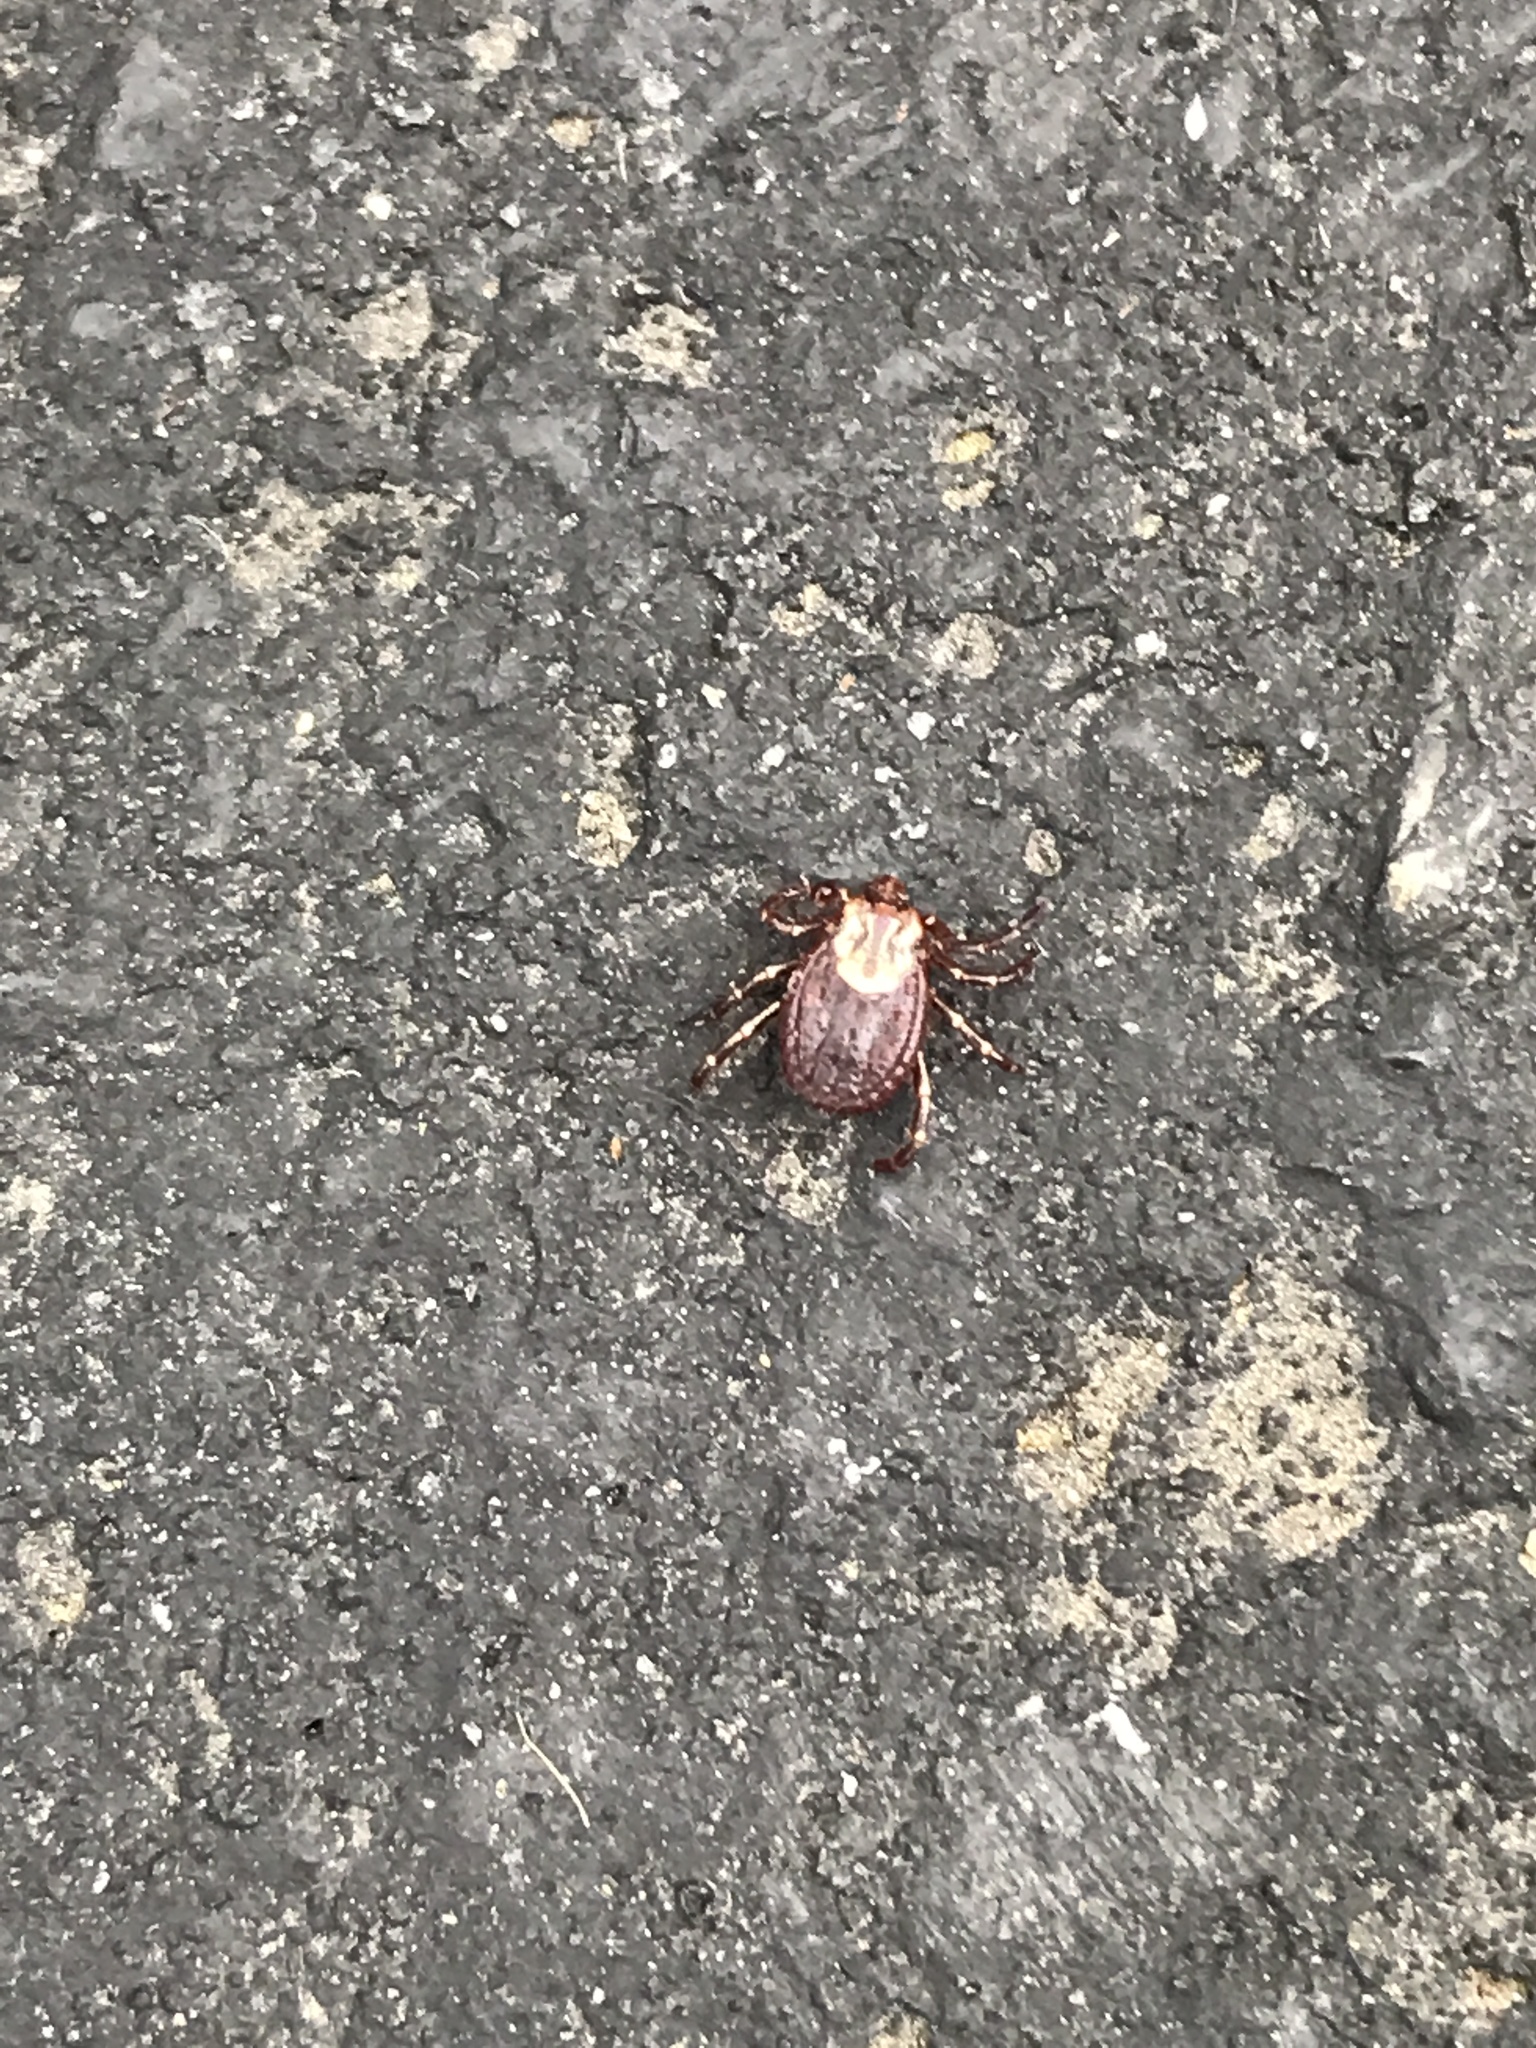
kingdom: Animalia
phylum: Arthropoda
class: Arachnida
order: Ixodida
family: Ixodidae
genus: Dermacentor
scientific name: Dermacentor variabilis
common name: American dog tick
